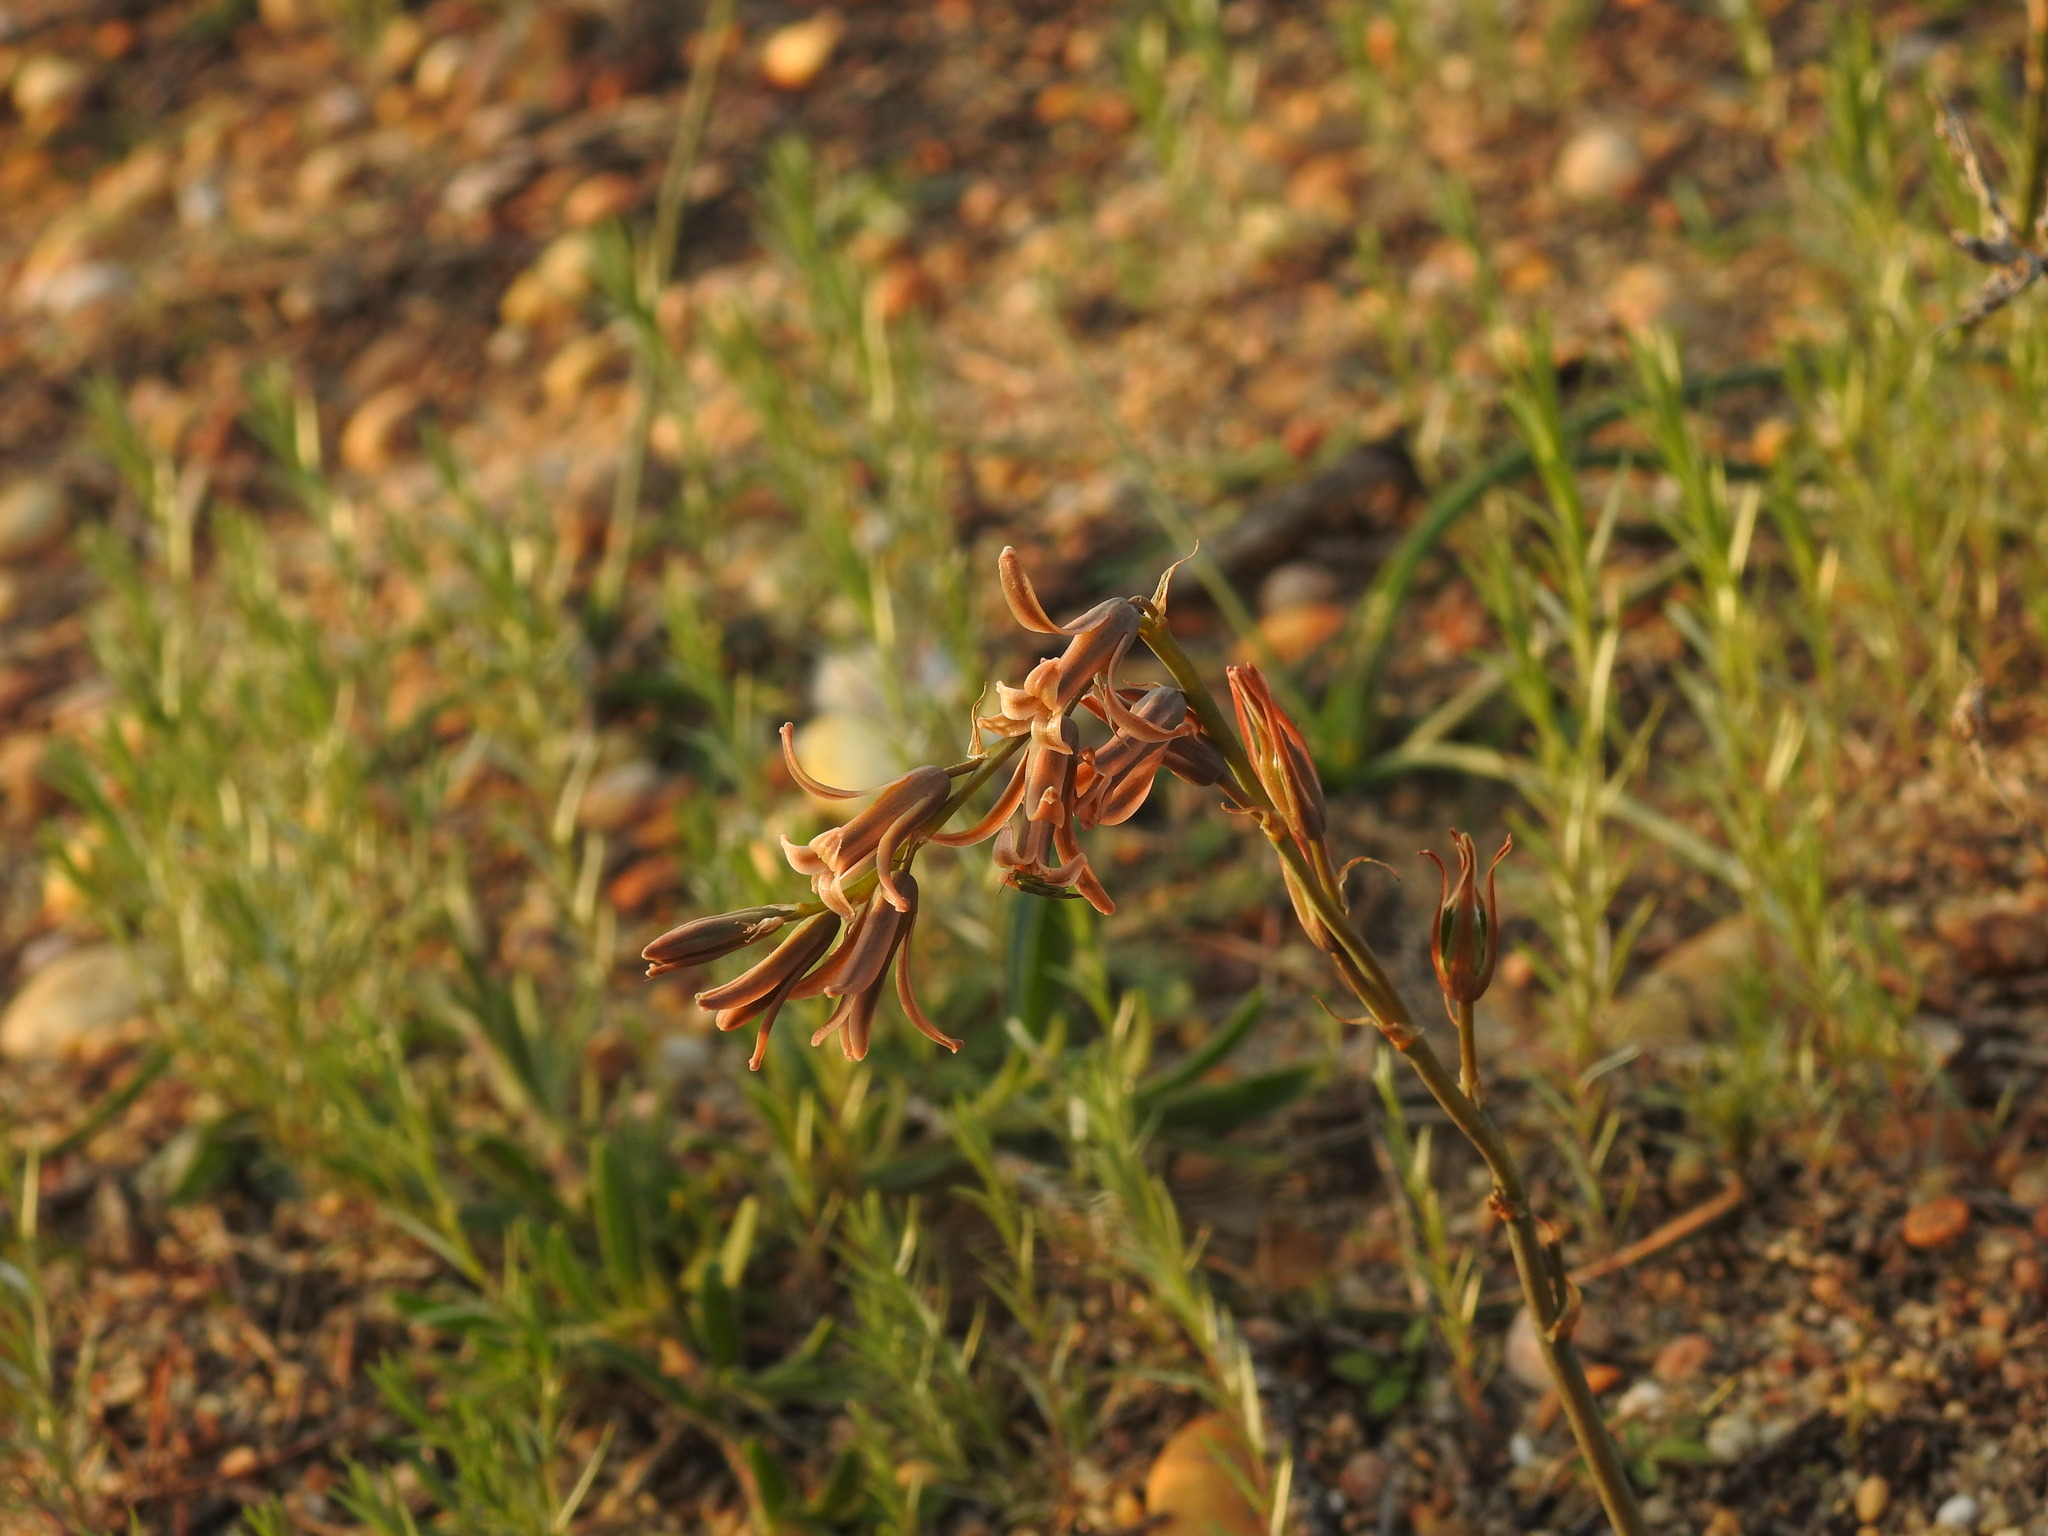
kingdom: Plantae
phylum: Tracheophyta
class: Liliopsida
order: Asparagales
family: Asparagaceae
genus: Dipcadi
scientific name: Dipcadi serotinum
